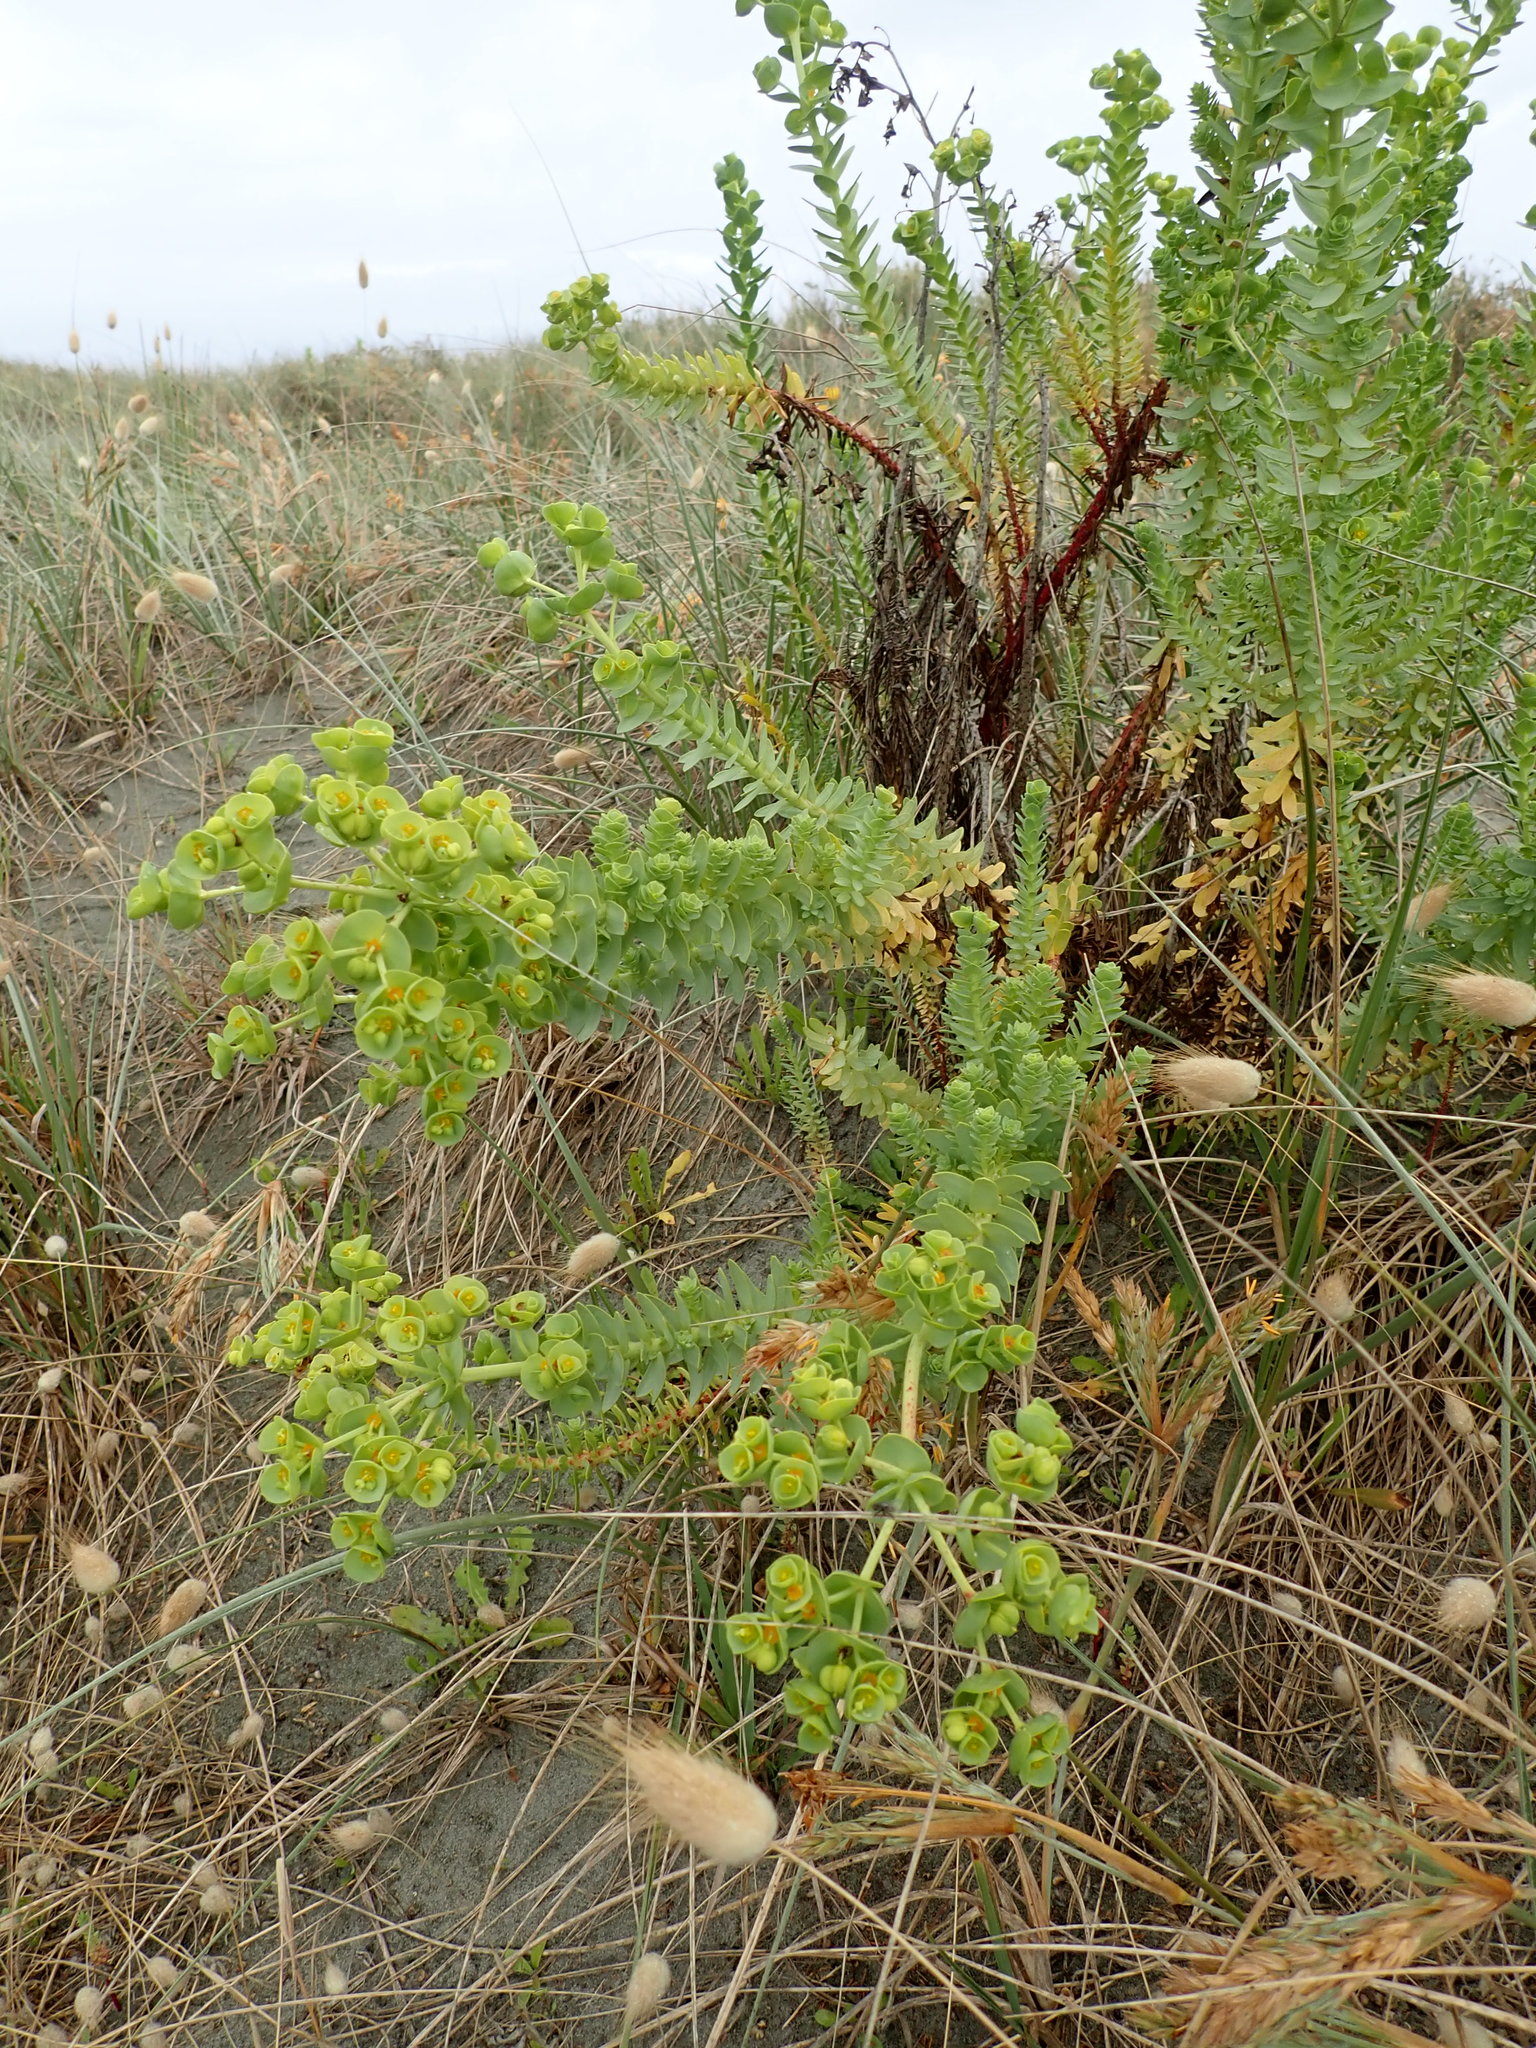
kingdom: Plantae
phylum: Tracheophyta
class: Magnoliopsida
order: Malpighiales
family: Euphorbiaceae
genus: Euphorbia
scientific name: Euphorbia paralias
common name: Sea spurge
